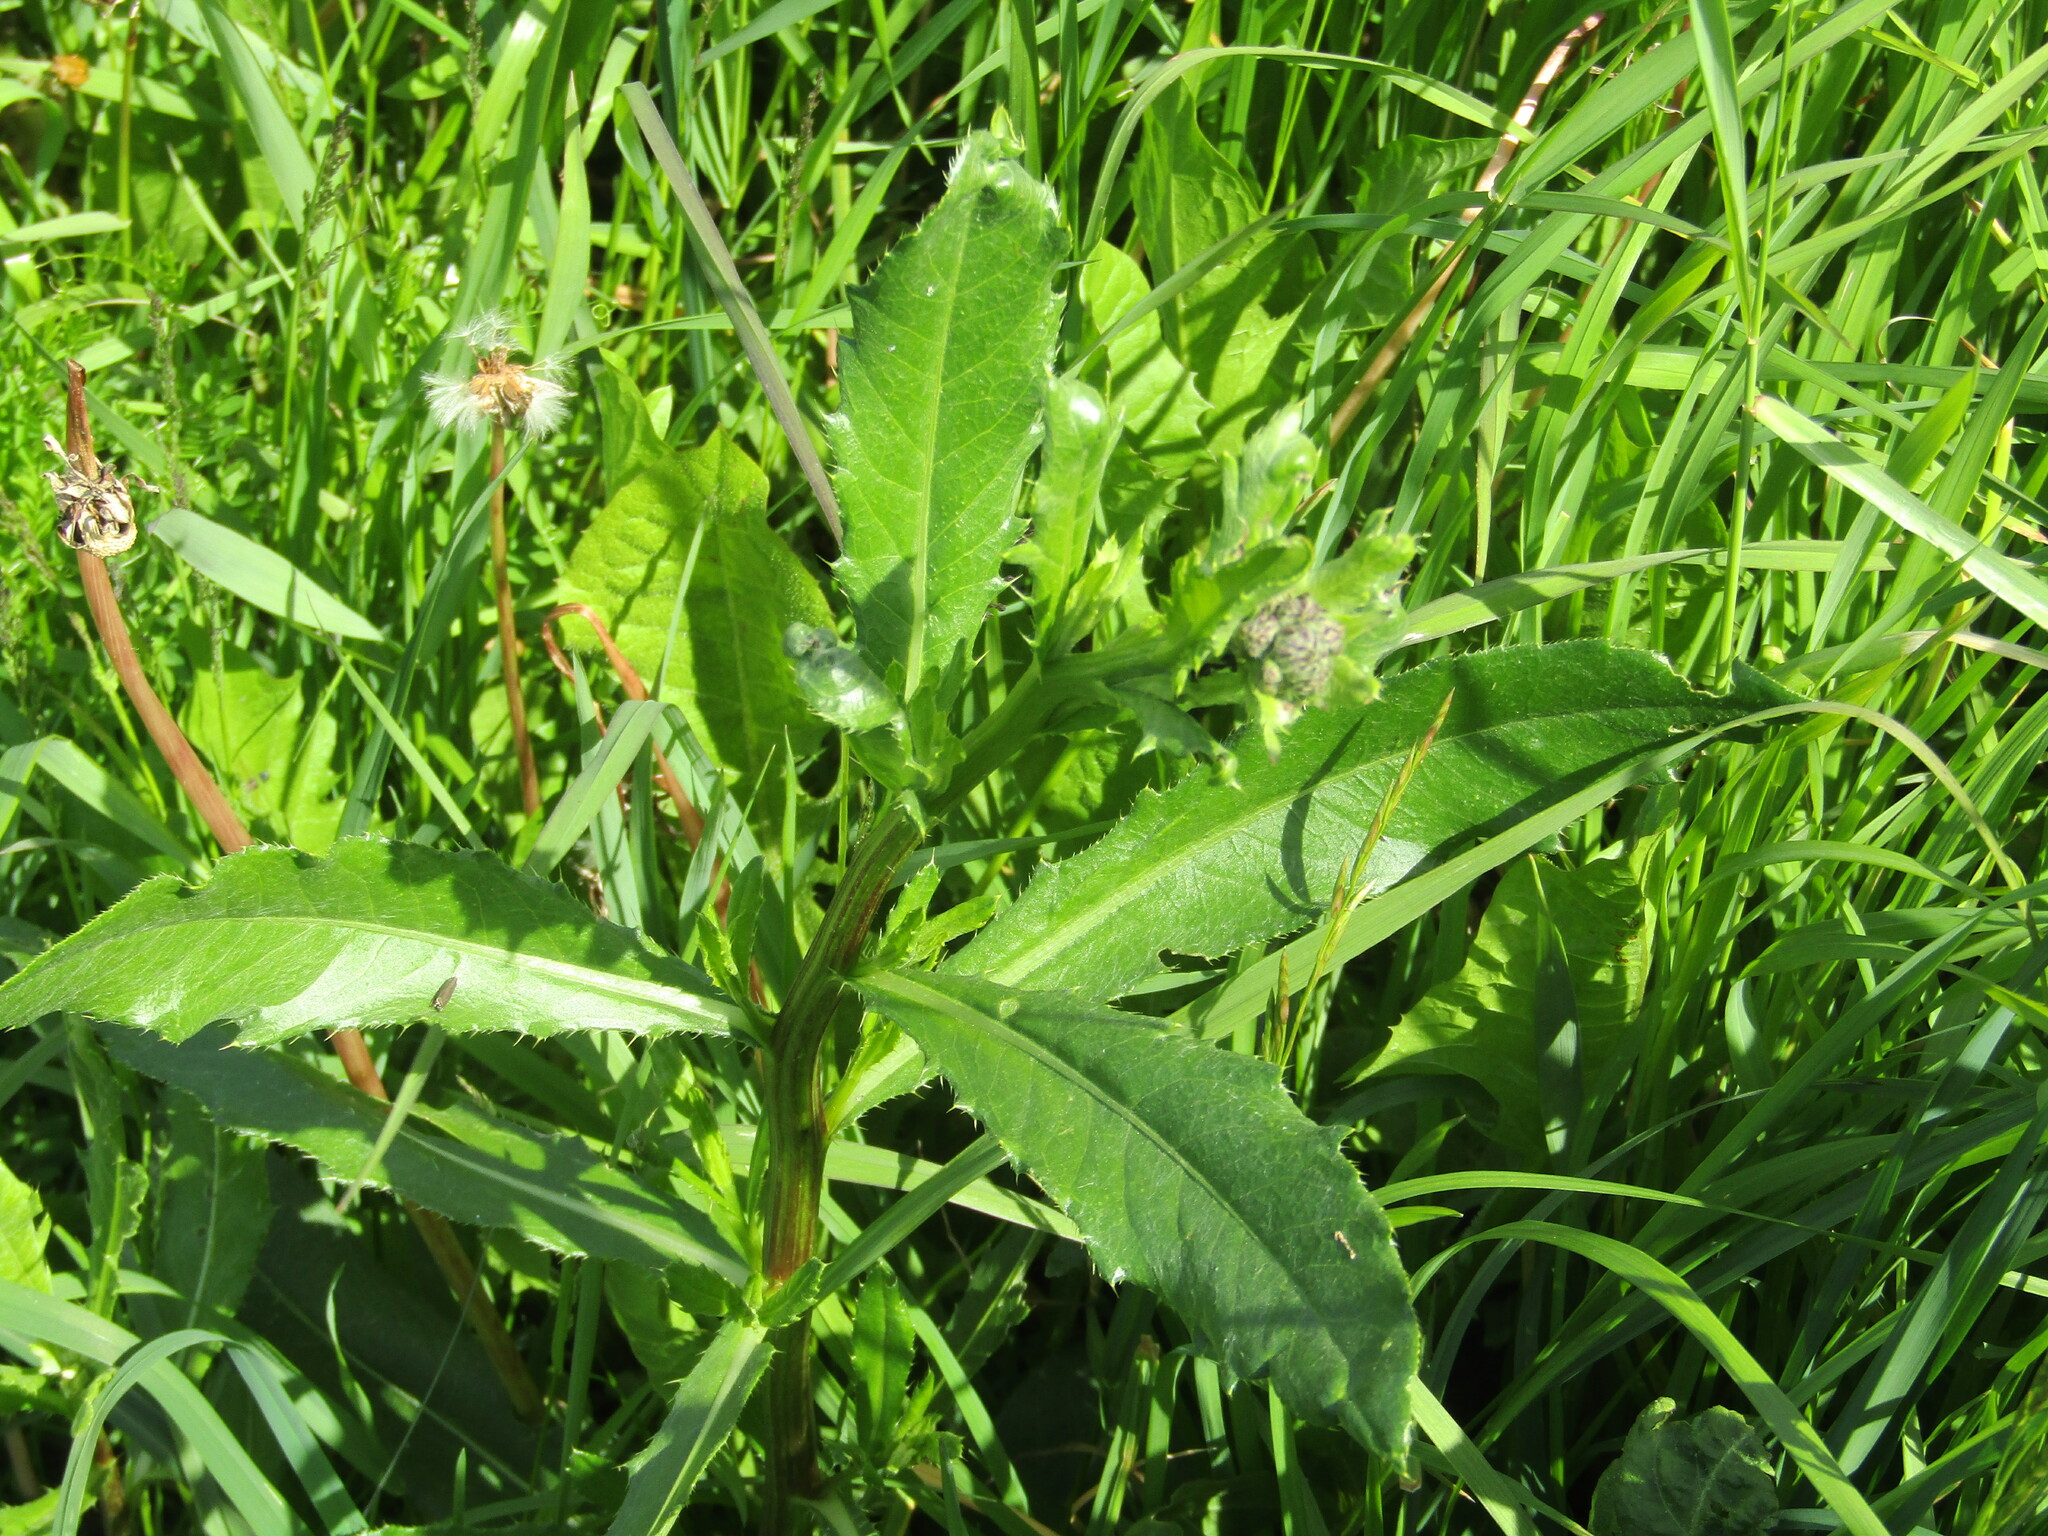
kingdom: Plantae
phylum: Tracheophyta
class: Magnoliopsida
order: Asterales
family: Asteraceae
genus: Cirsium
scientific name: Cirsium arvense
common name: Creeping thistle
